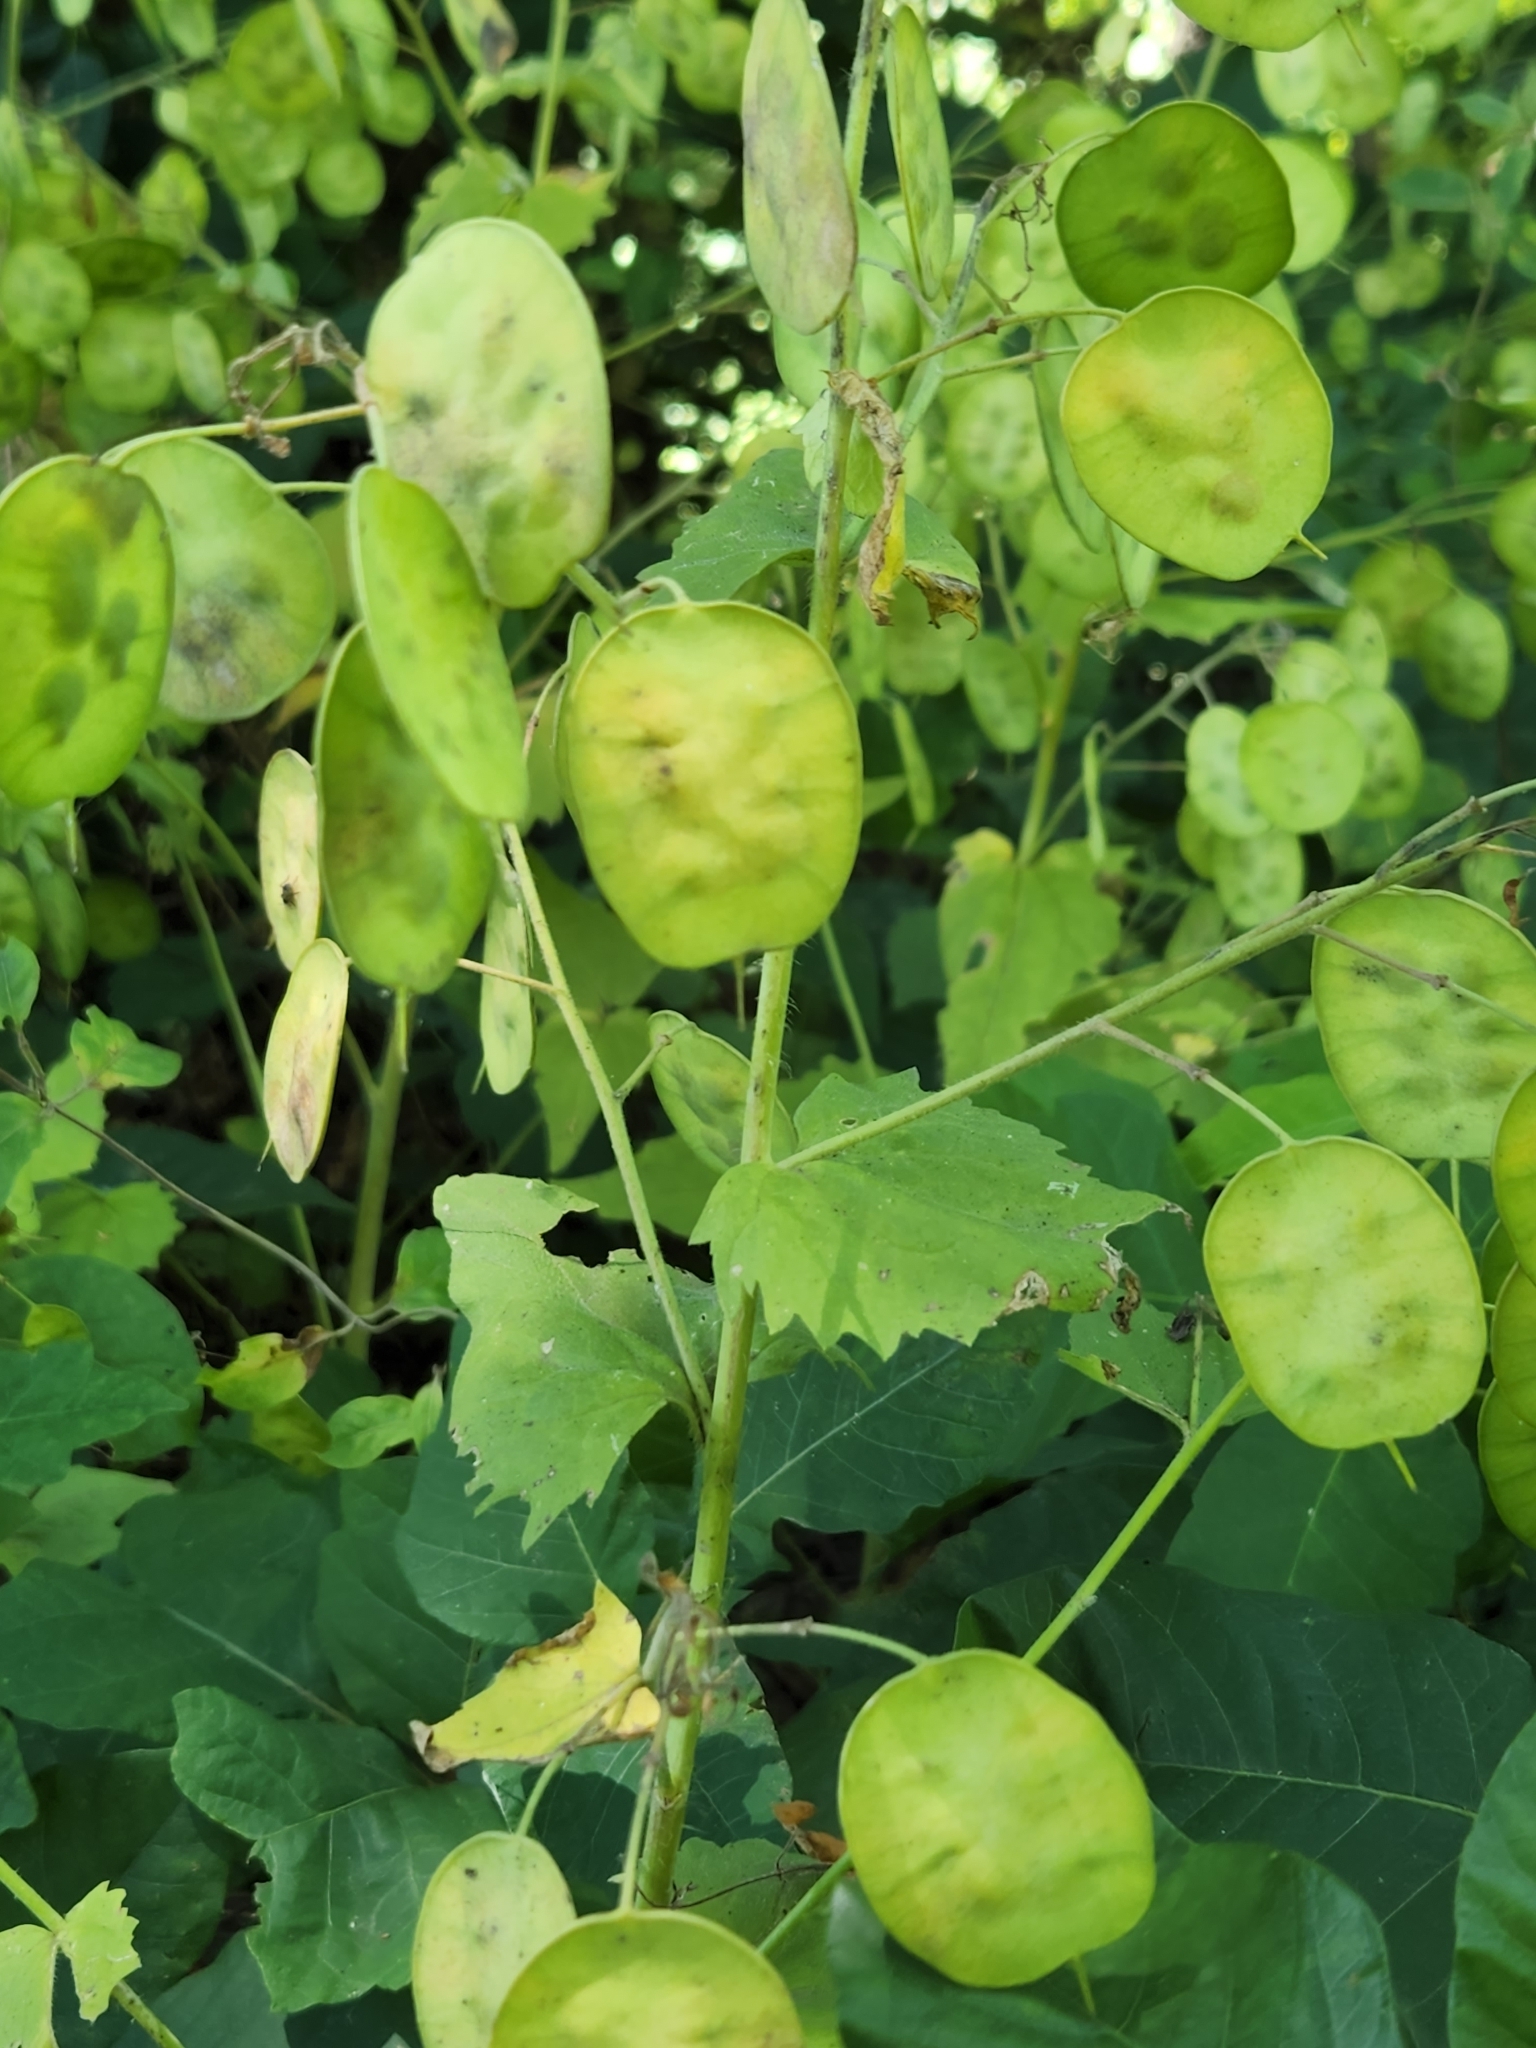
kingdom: Plantae
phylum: Tracheophyta
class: Magnoliopsida
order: Brassicales
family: Brassicaceae
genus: Lunaria
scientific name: Lunaria annua
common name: Honesty
